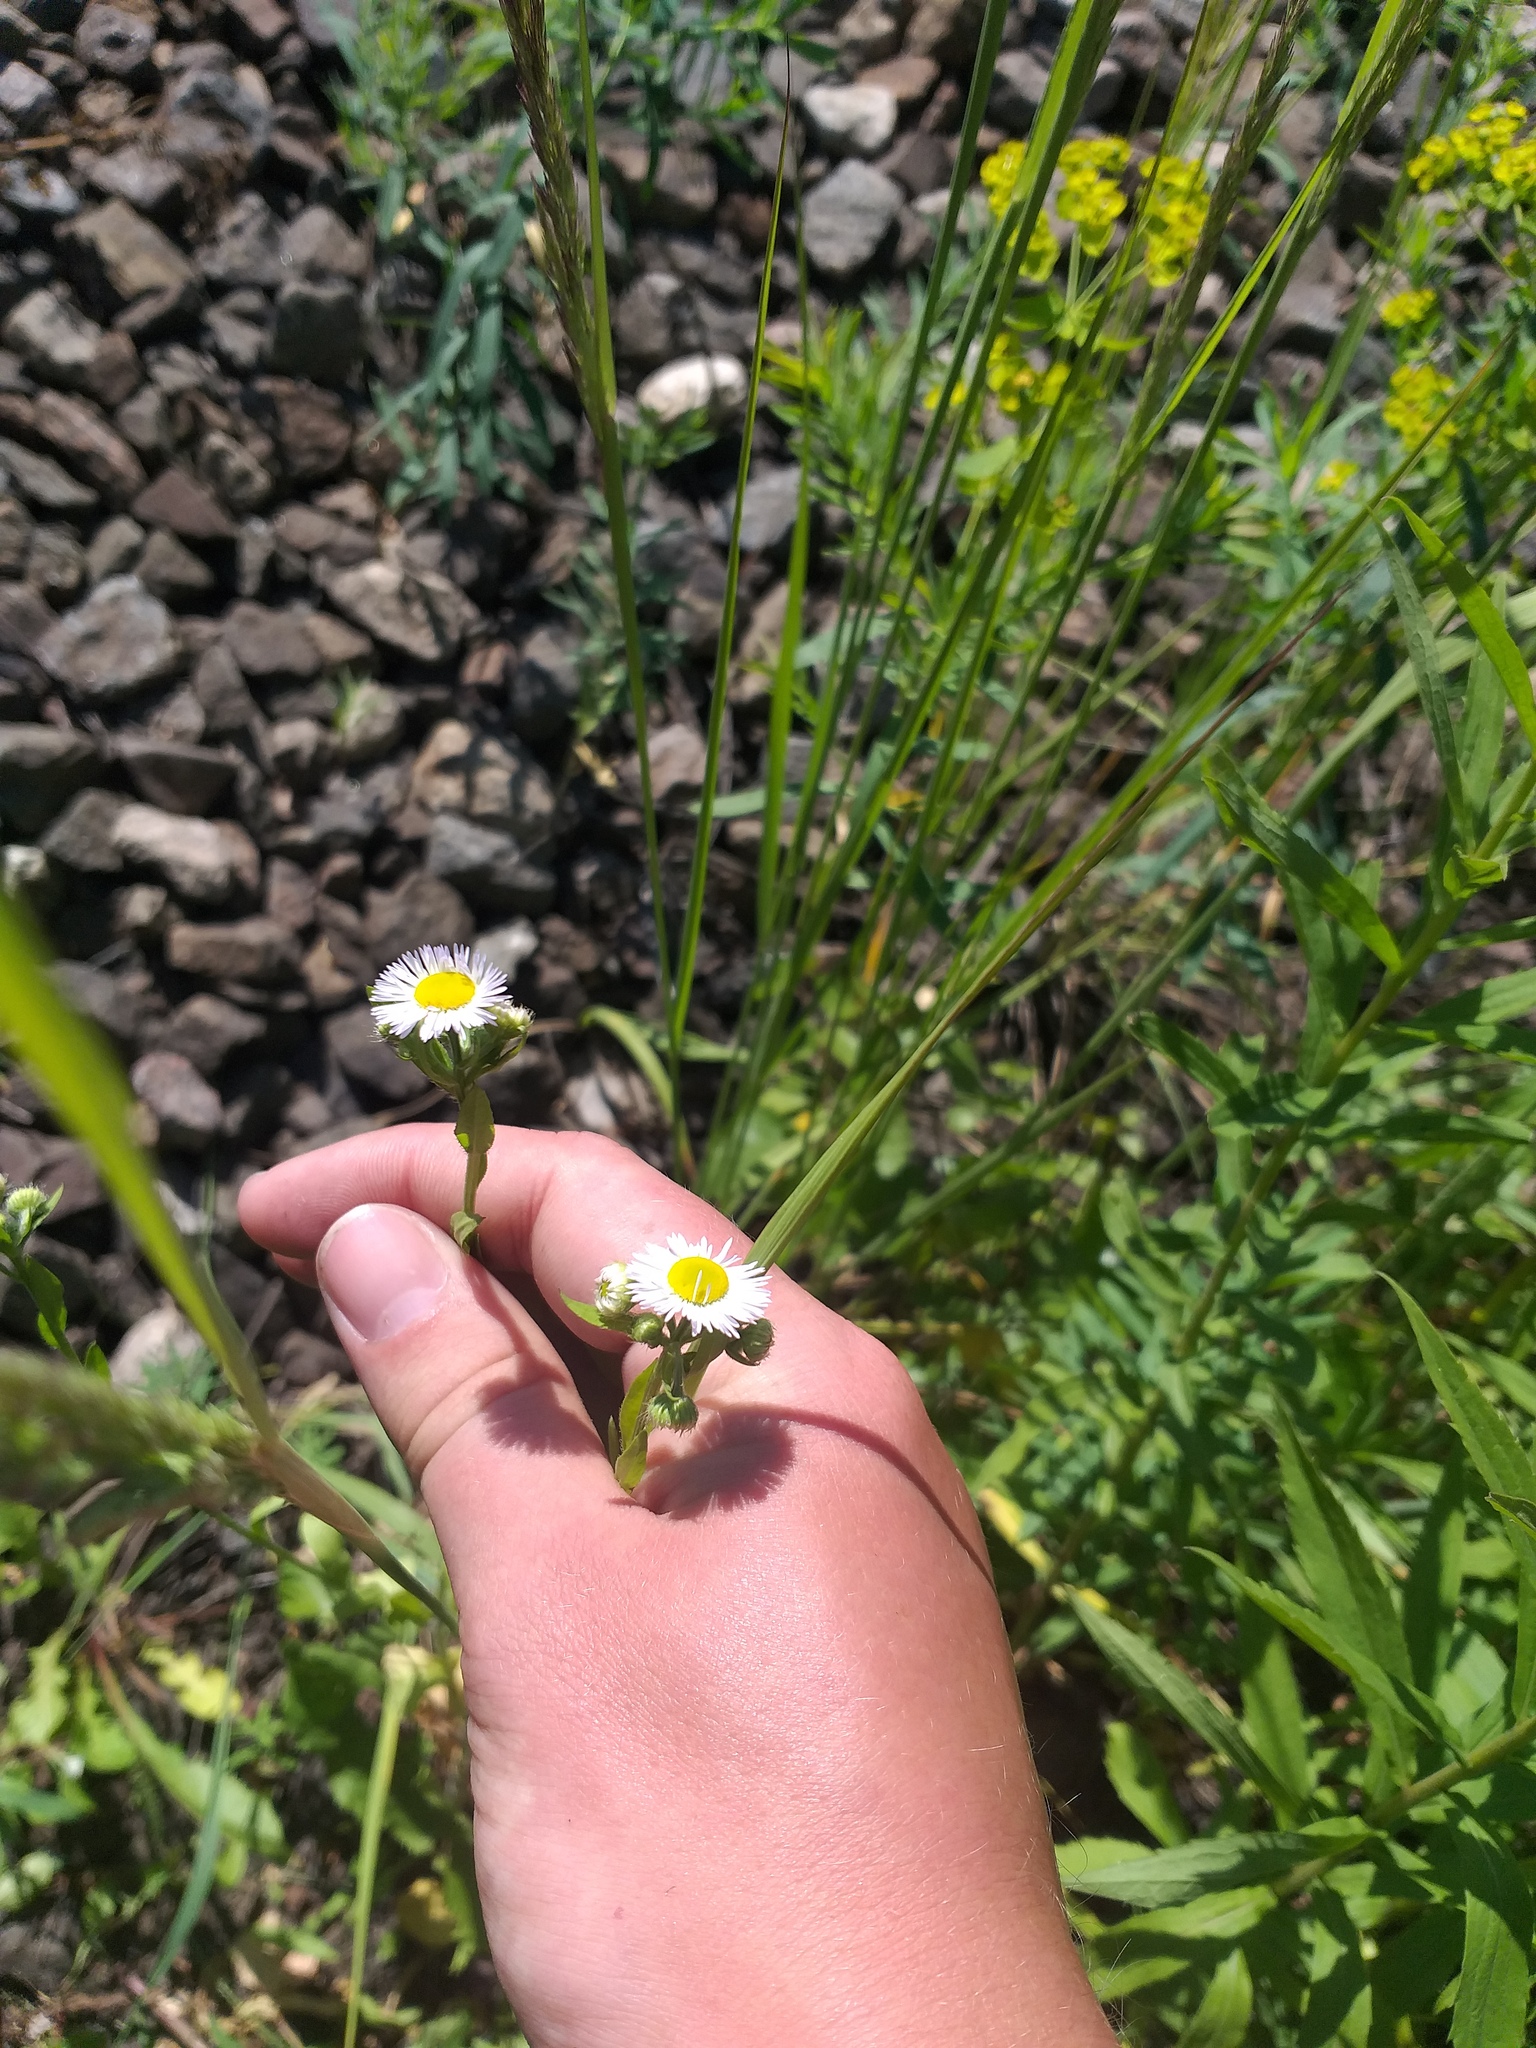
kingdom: Plantae
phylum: Tracheophyta
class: Magnoliopsida
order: Asterales
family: Asteraceae
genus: Erigeron
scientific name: Erigeron annuus
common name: Tall fleabane
